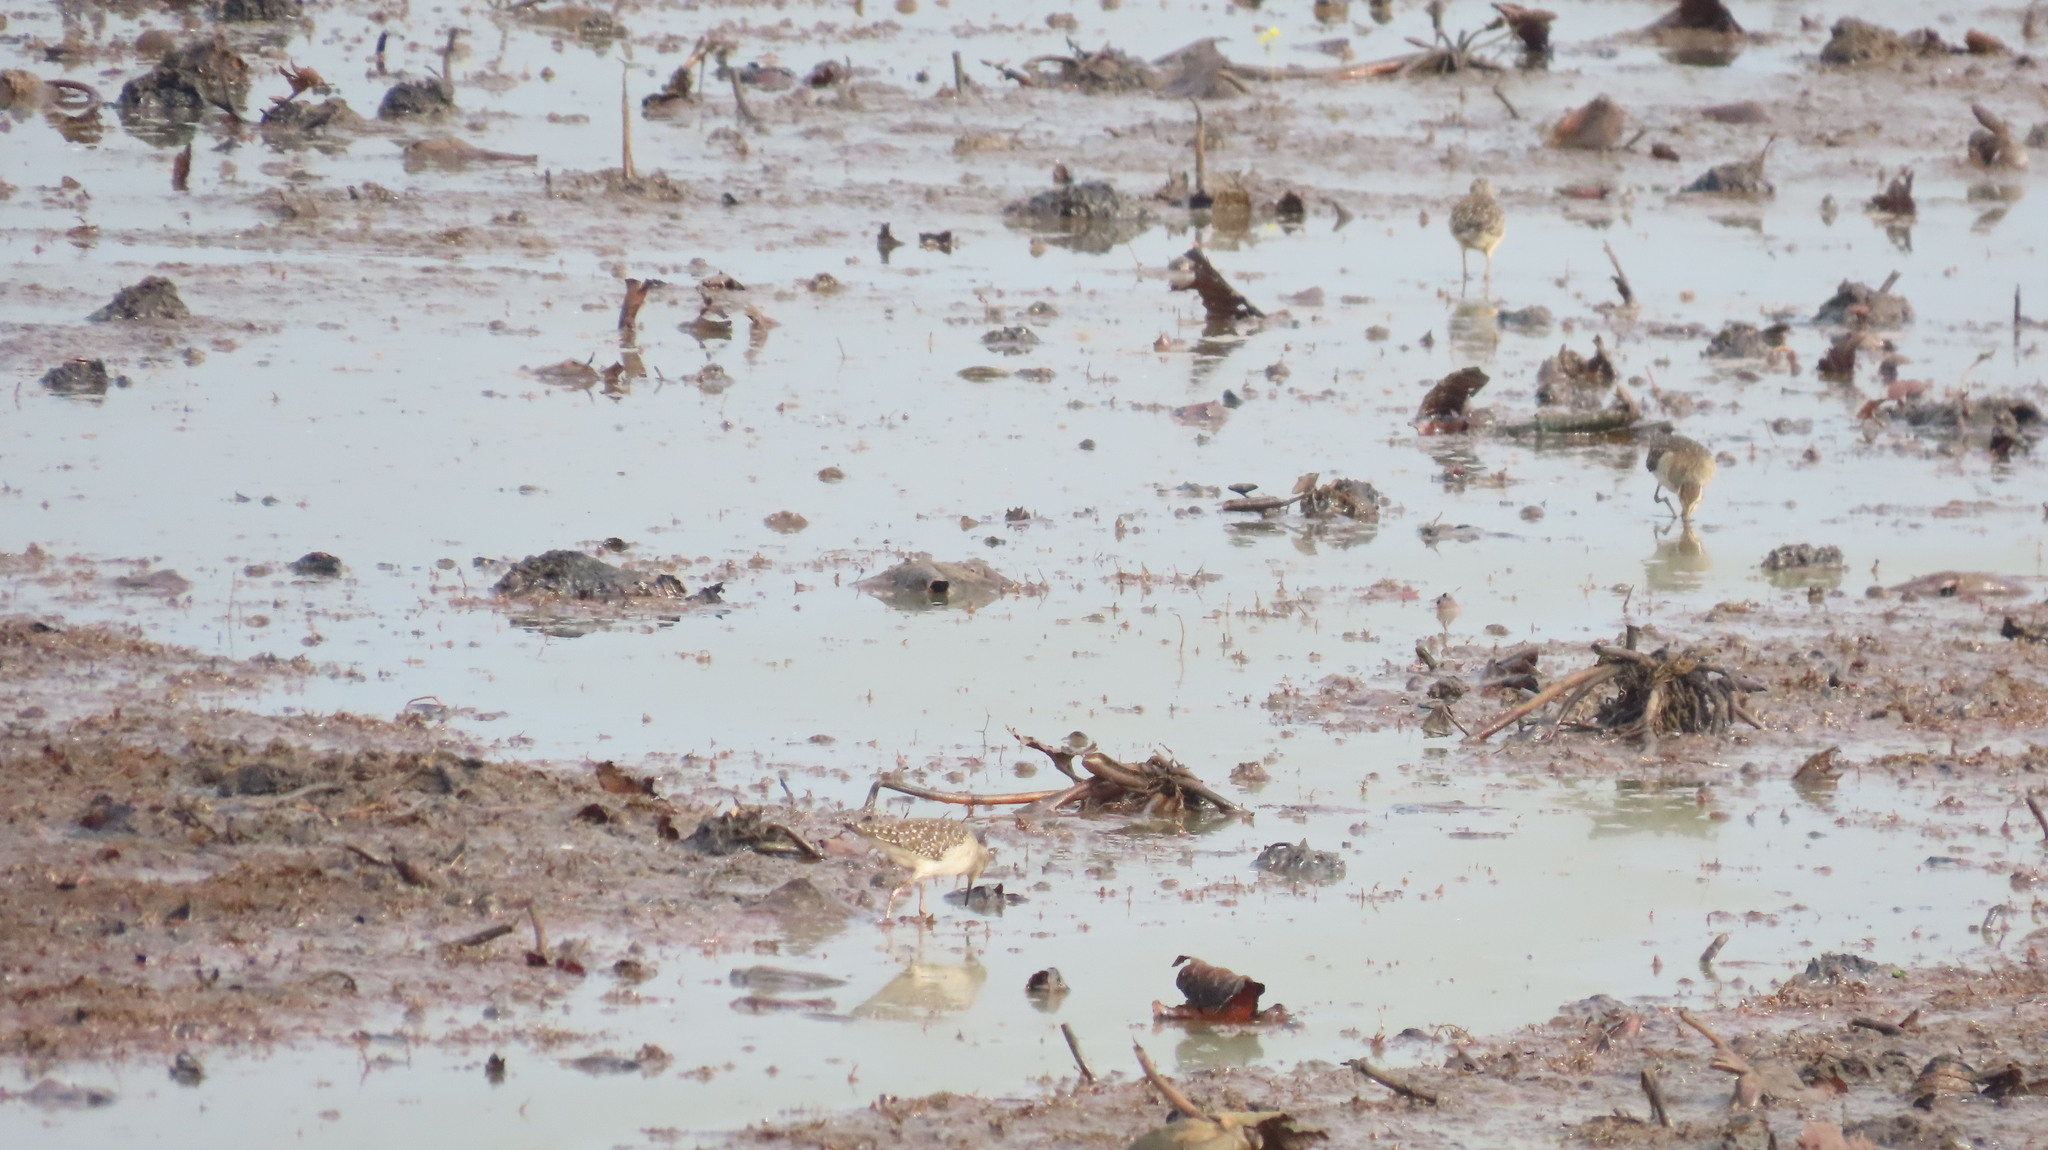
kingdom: Animalia
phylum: Chordata
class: Aves
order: Charadriiformes
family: Scolopacidae
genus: Tringa
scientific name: Tringa glareola
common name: Wood sandpiper
